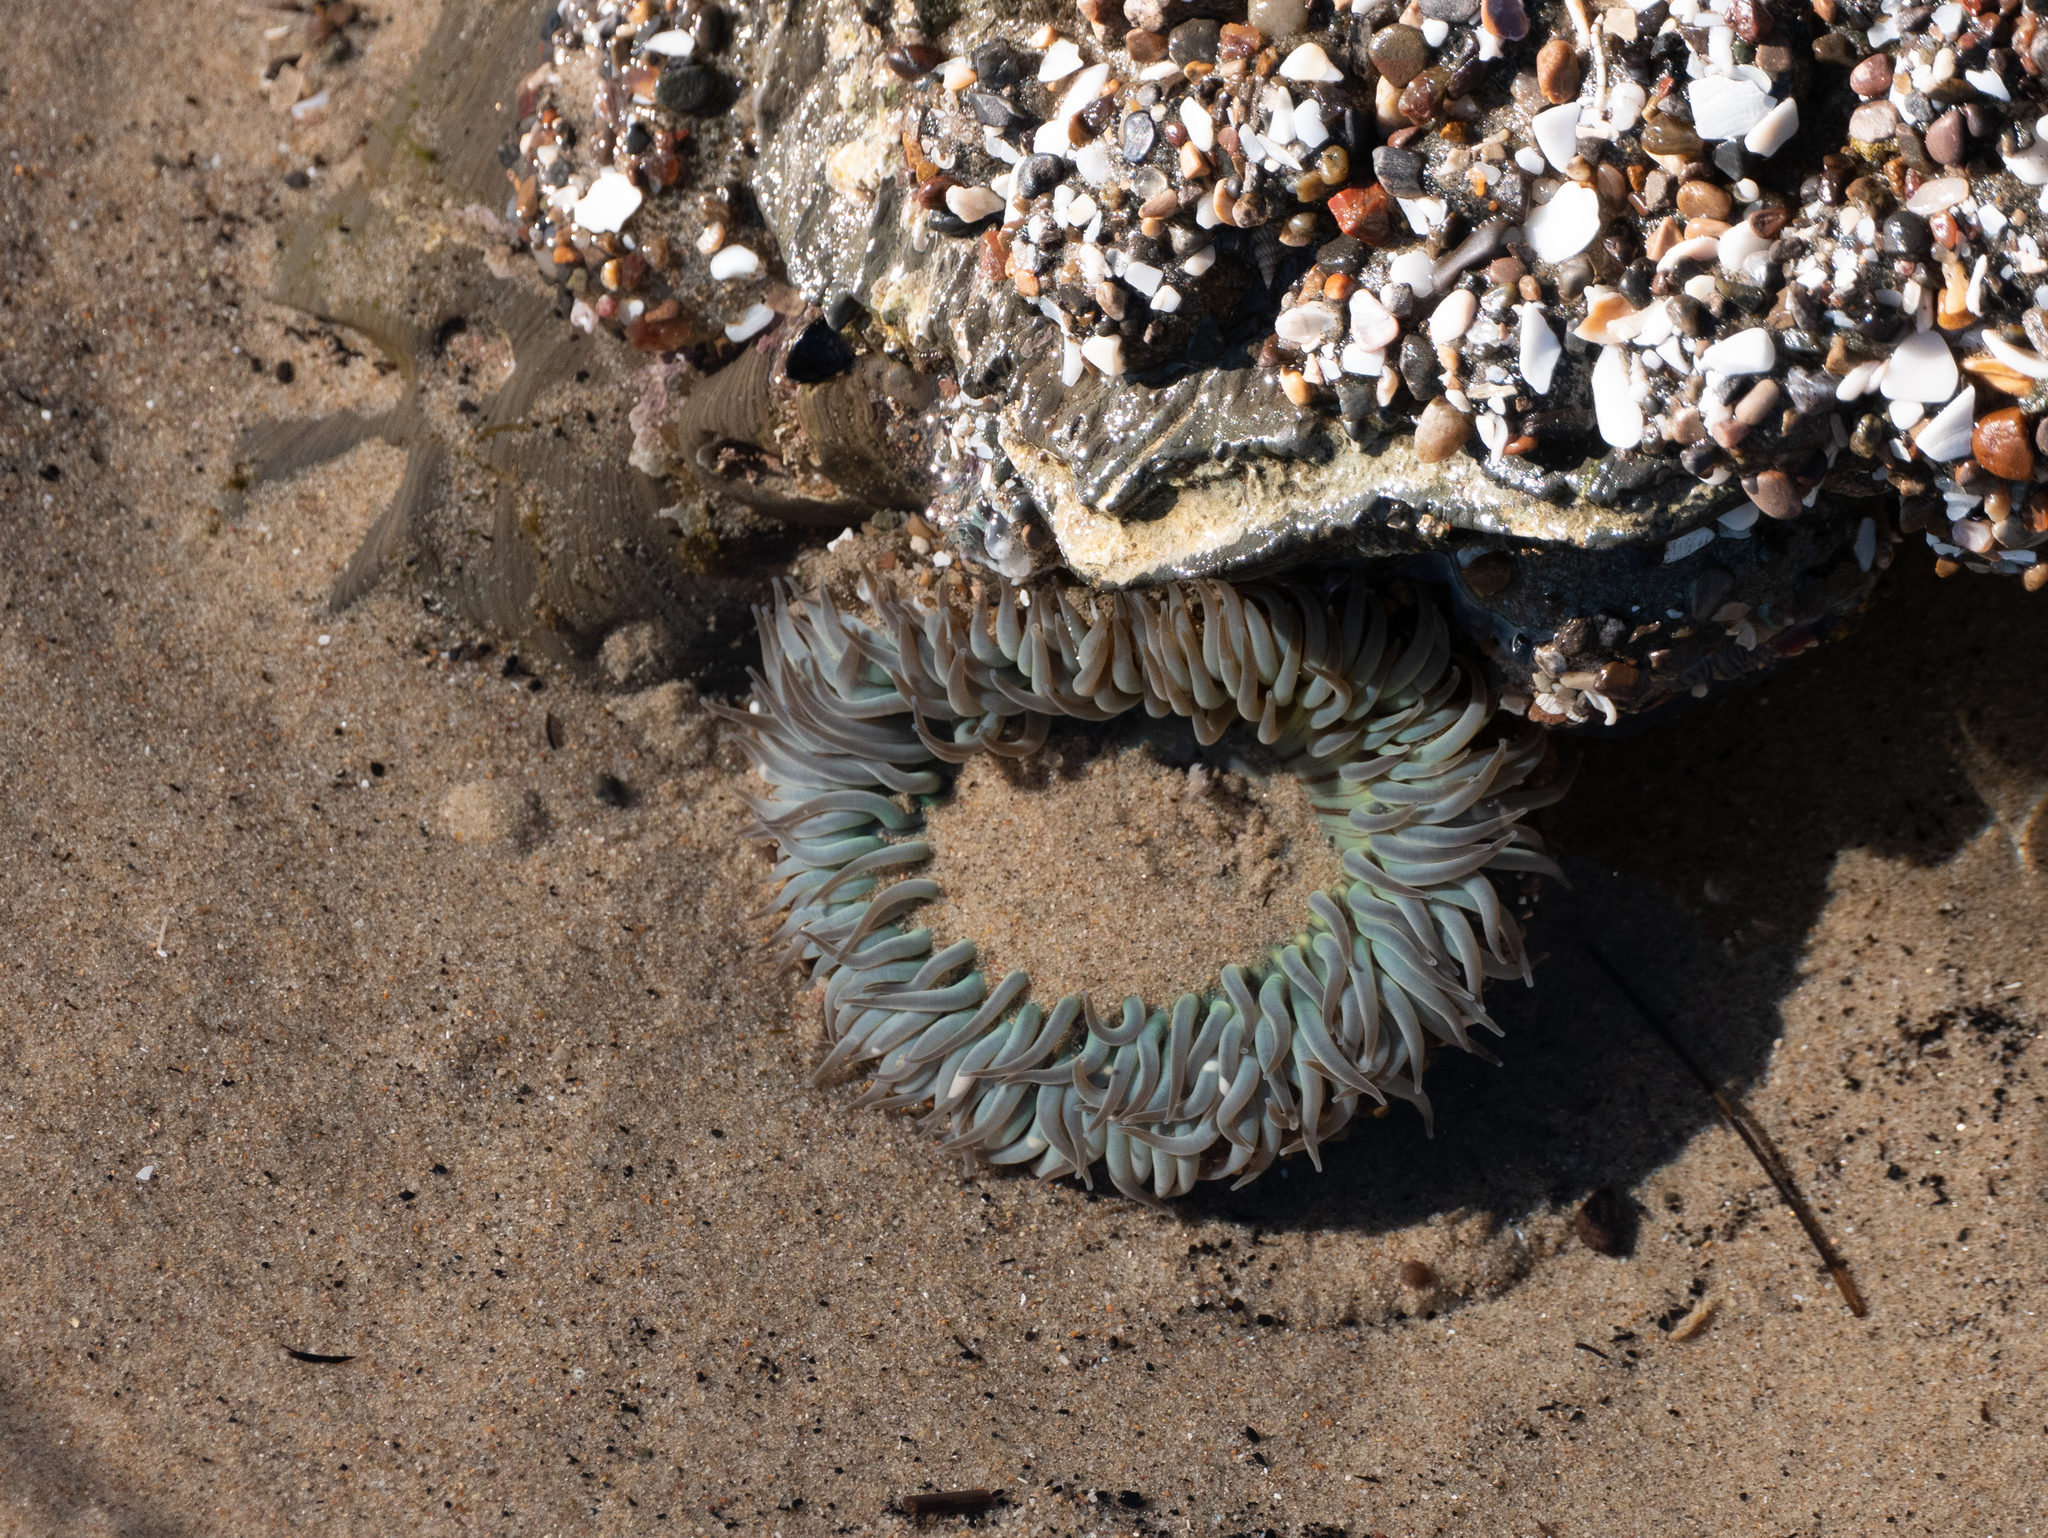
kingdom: Animalia
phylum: Cnidaria
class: Anthozoa
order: Actiniaria
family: Actiniidae
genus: Anthopleura
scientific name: Anthopleura sola
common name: Sun anemone
